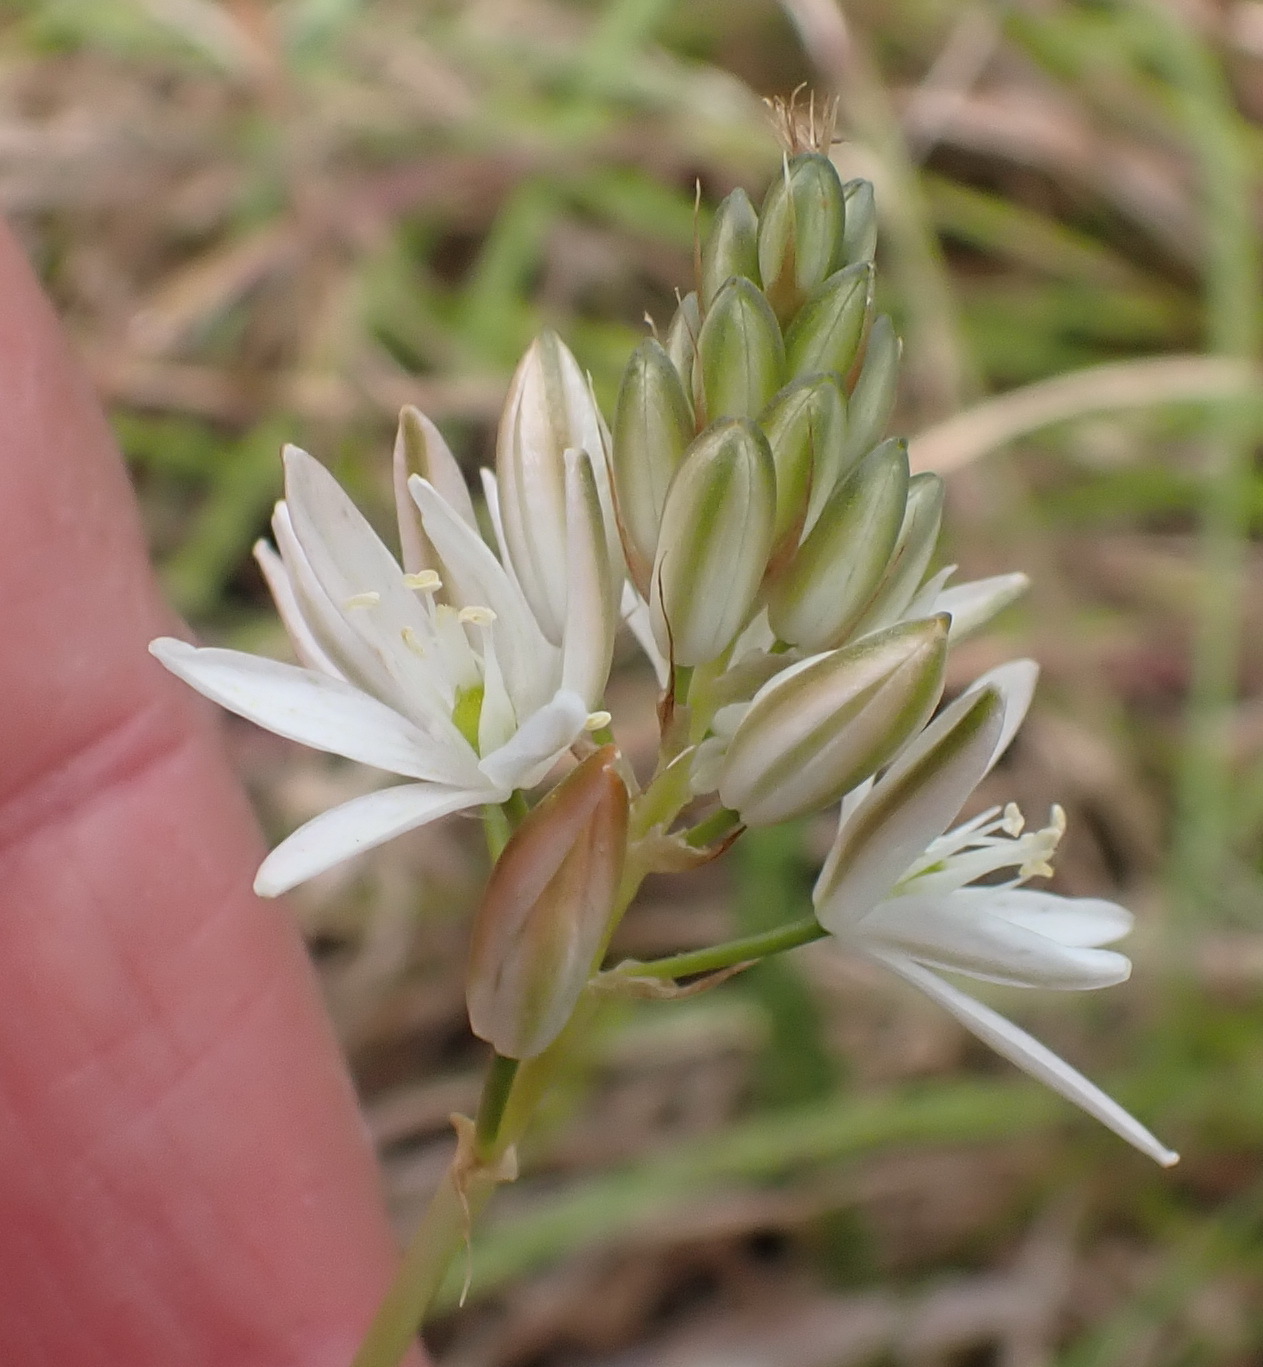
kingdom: Plantae
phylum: Tracheophyta
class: Liliopsida
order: Asparagales
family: Asparagaceae
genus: Ornithogalum
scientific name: Ornithogalum graminifolium
